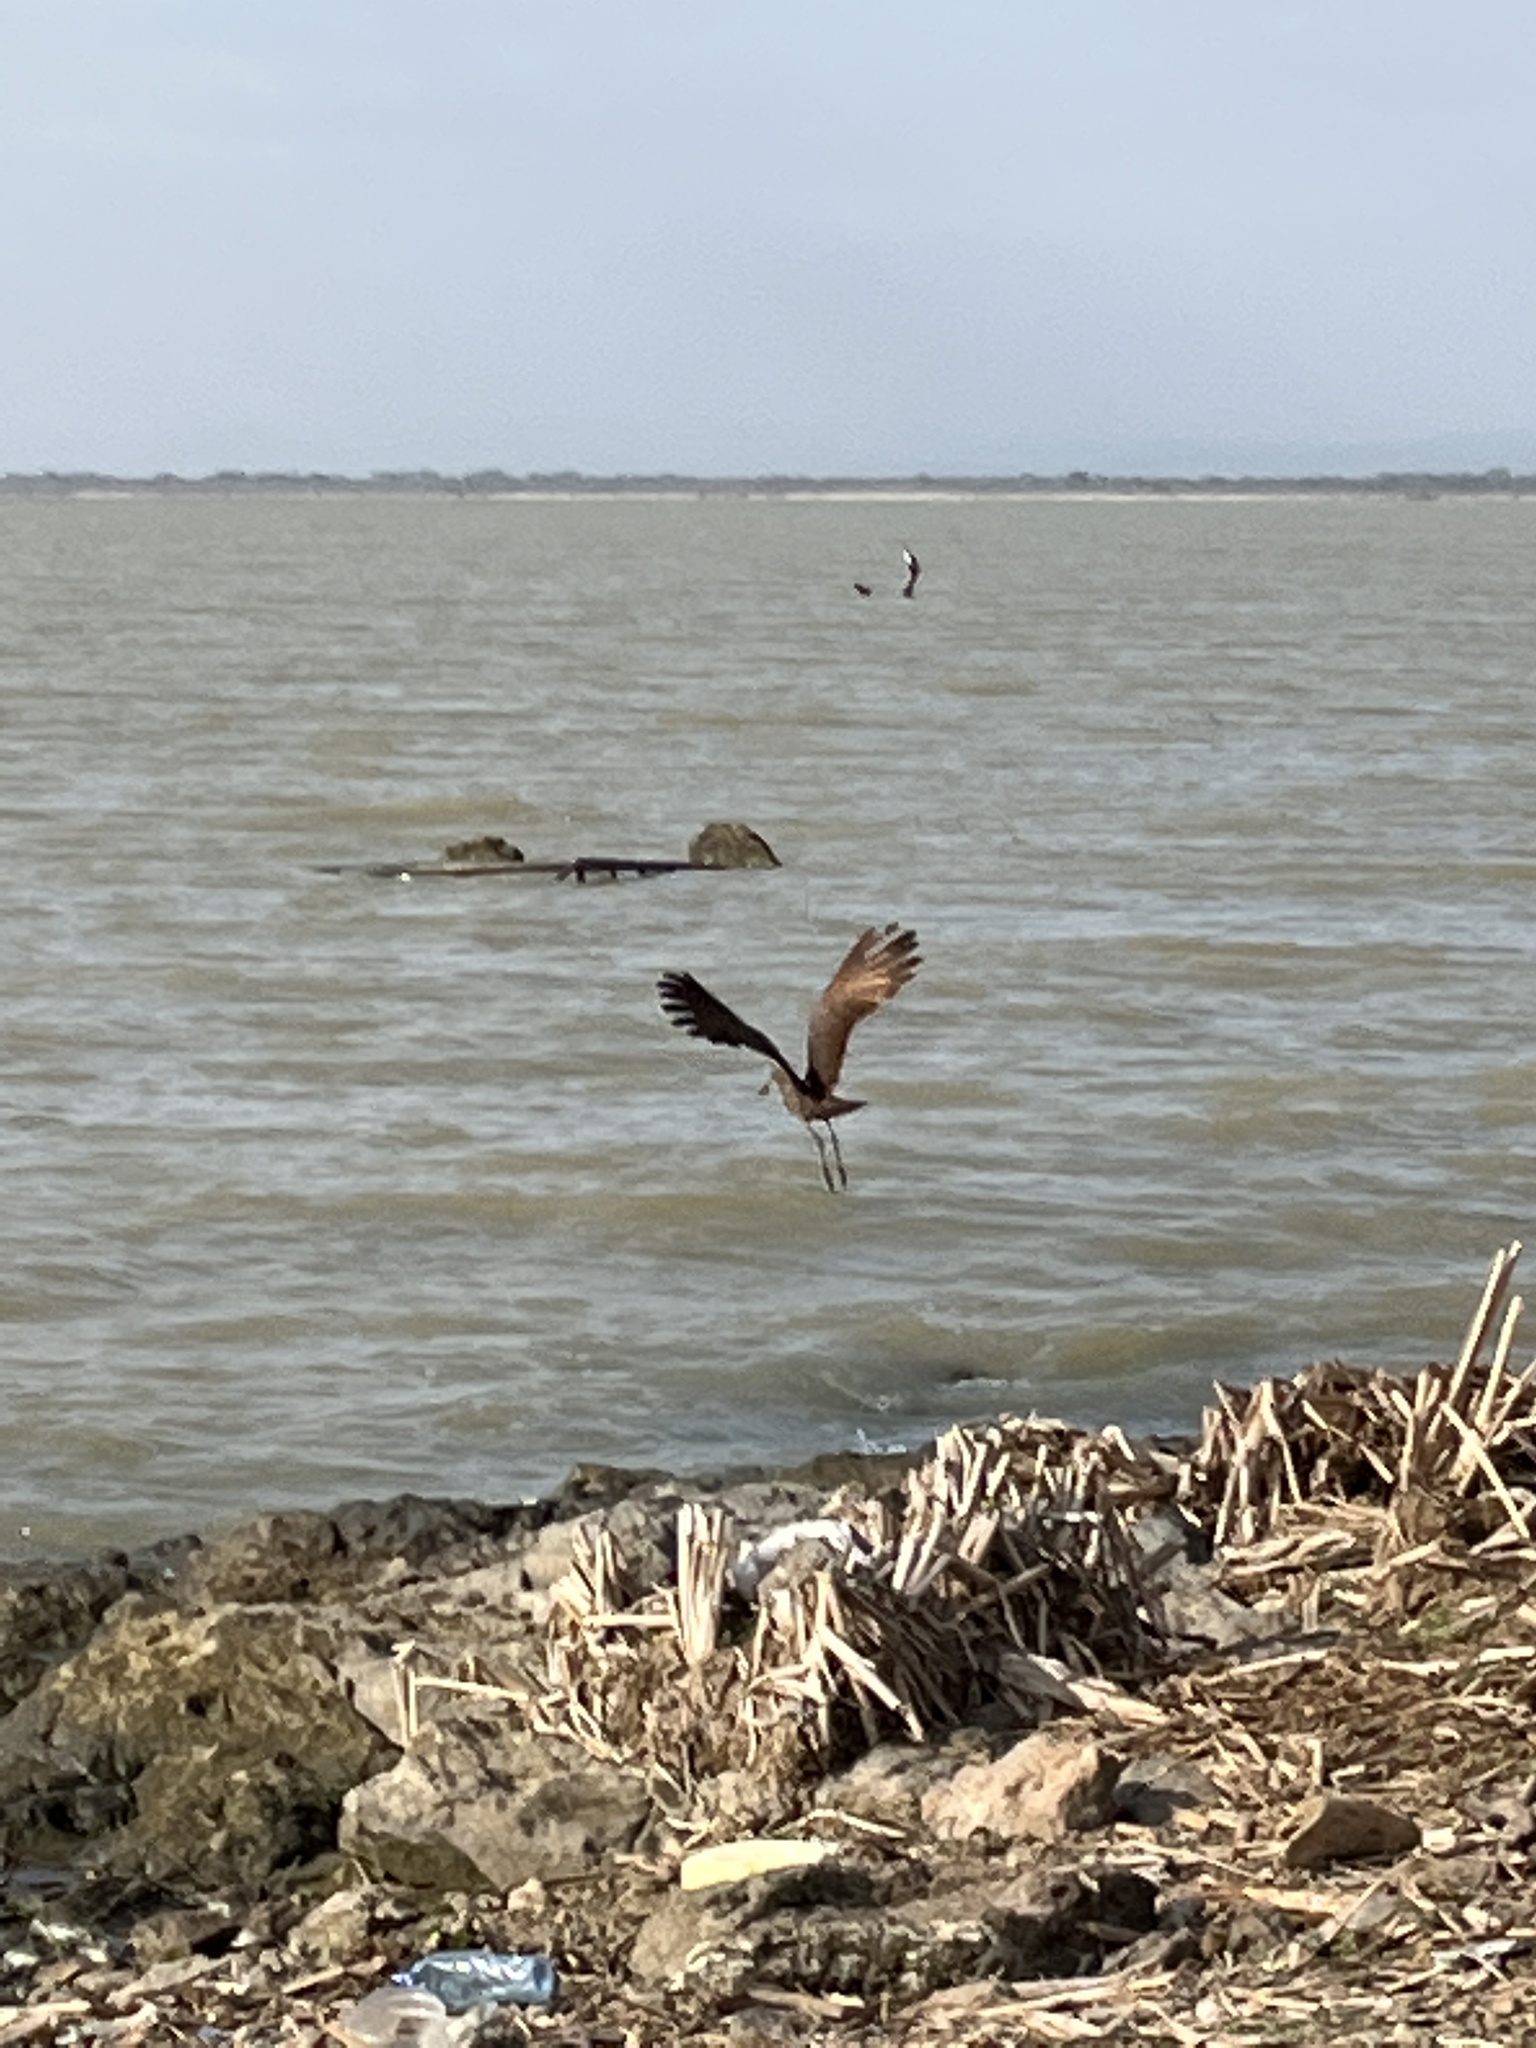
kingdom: Animalia
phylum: Chordata
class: Aves
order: Pelecaniformes
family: Scopidae
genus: Scopus
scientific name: Scopus umbretta
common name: Hamerkop
